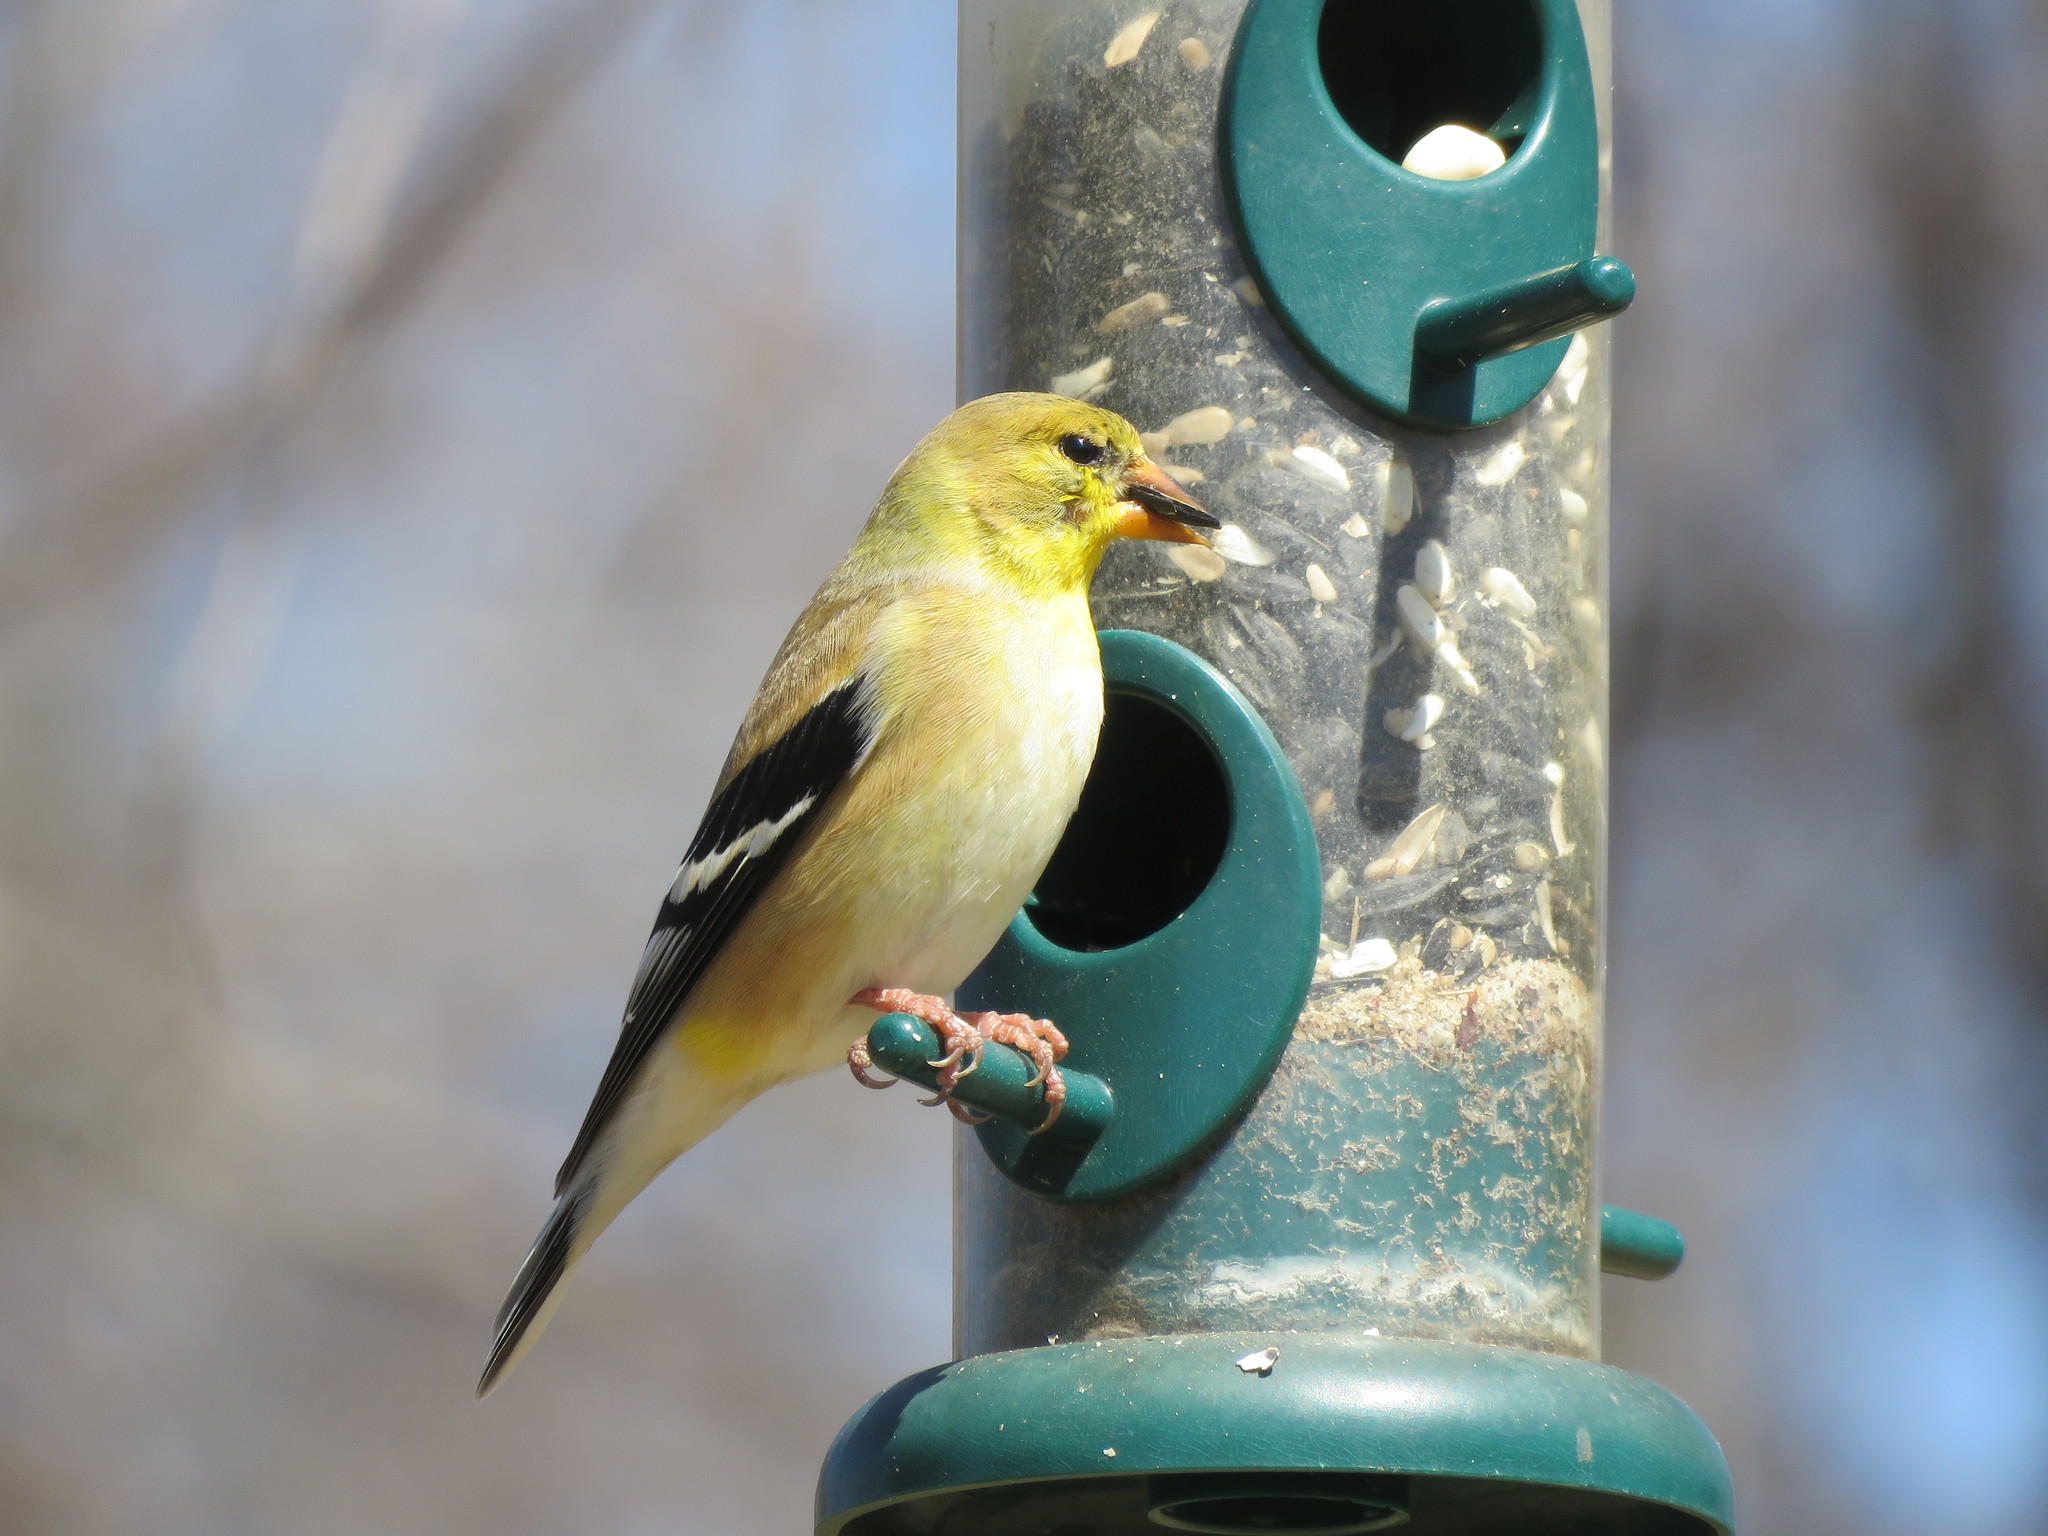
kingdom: Animalia
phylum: Chordata
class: Aves
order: Passeriformes
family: Fringillidae
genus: Spinus
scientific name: Spinus tristis
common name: American goldfinch
